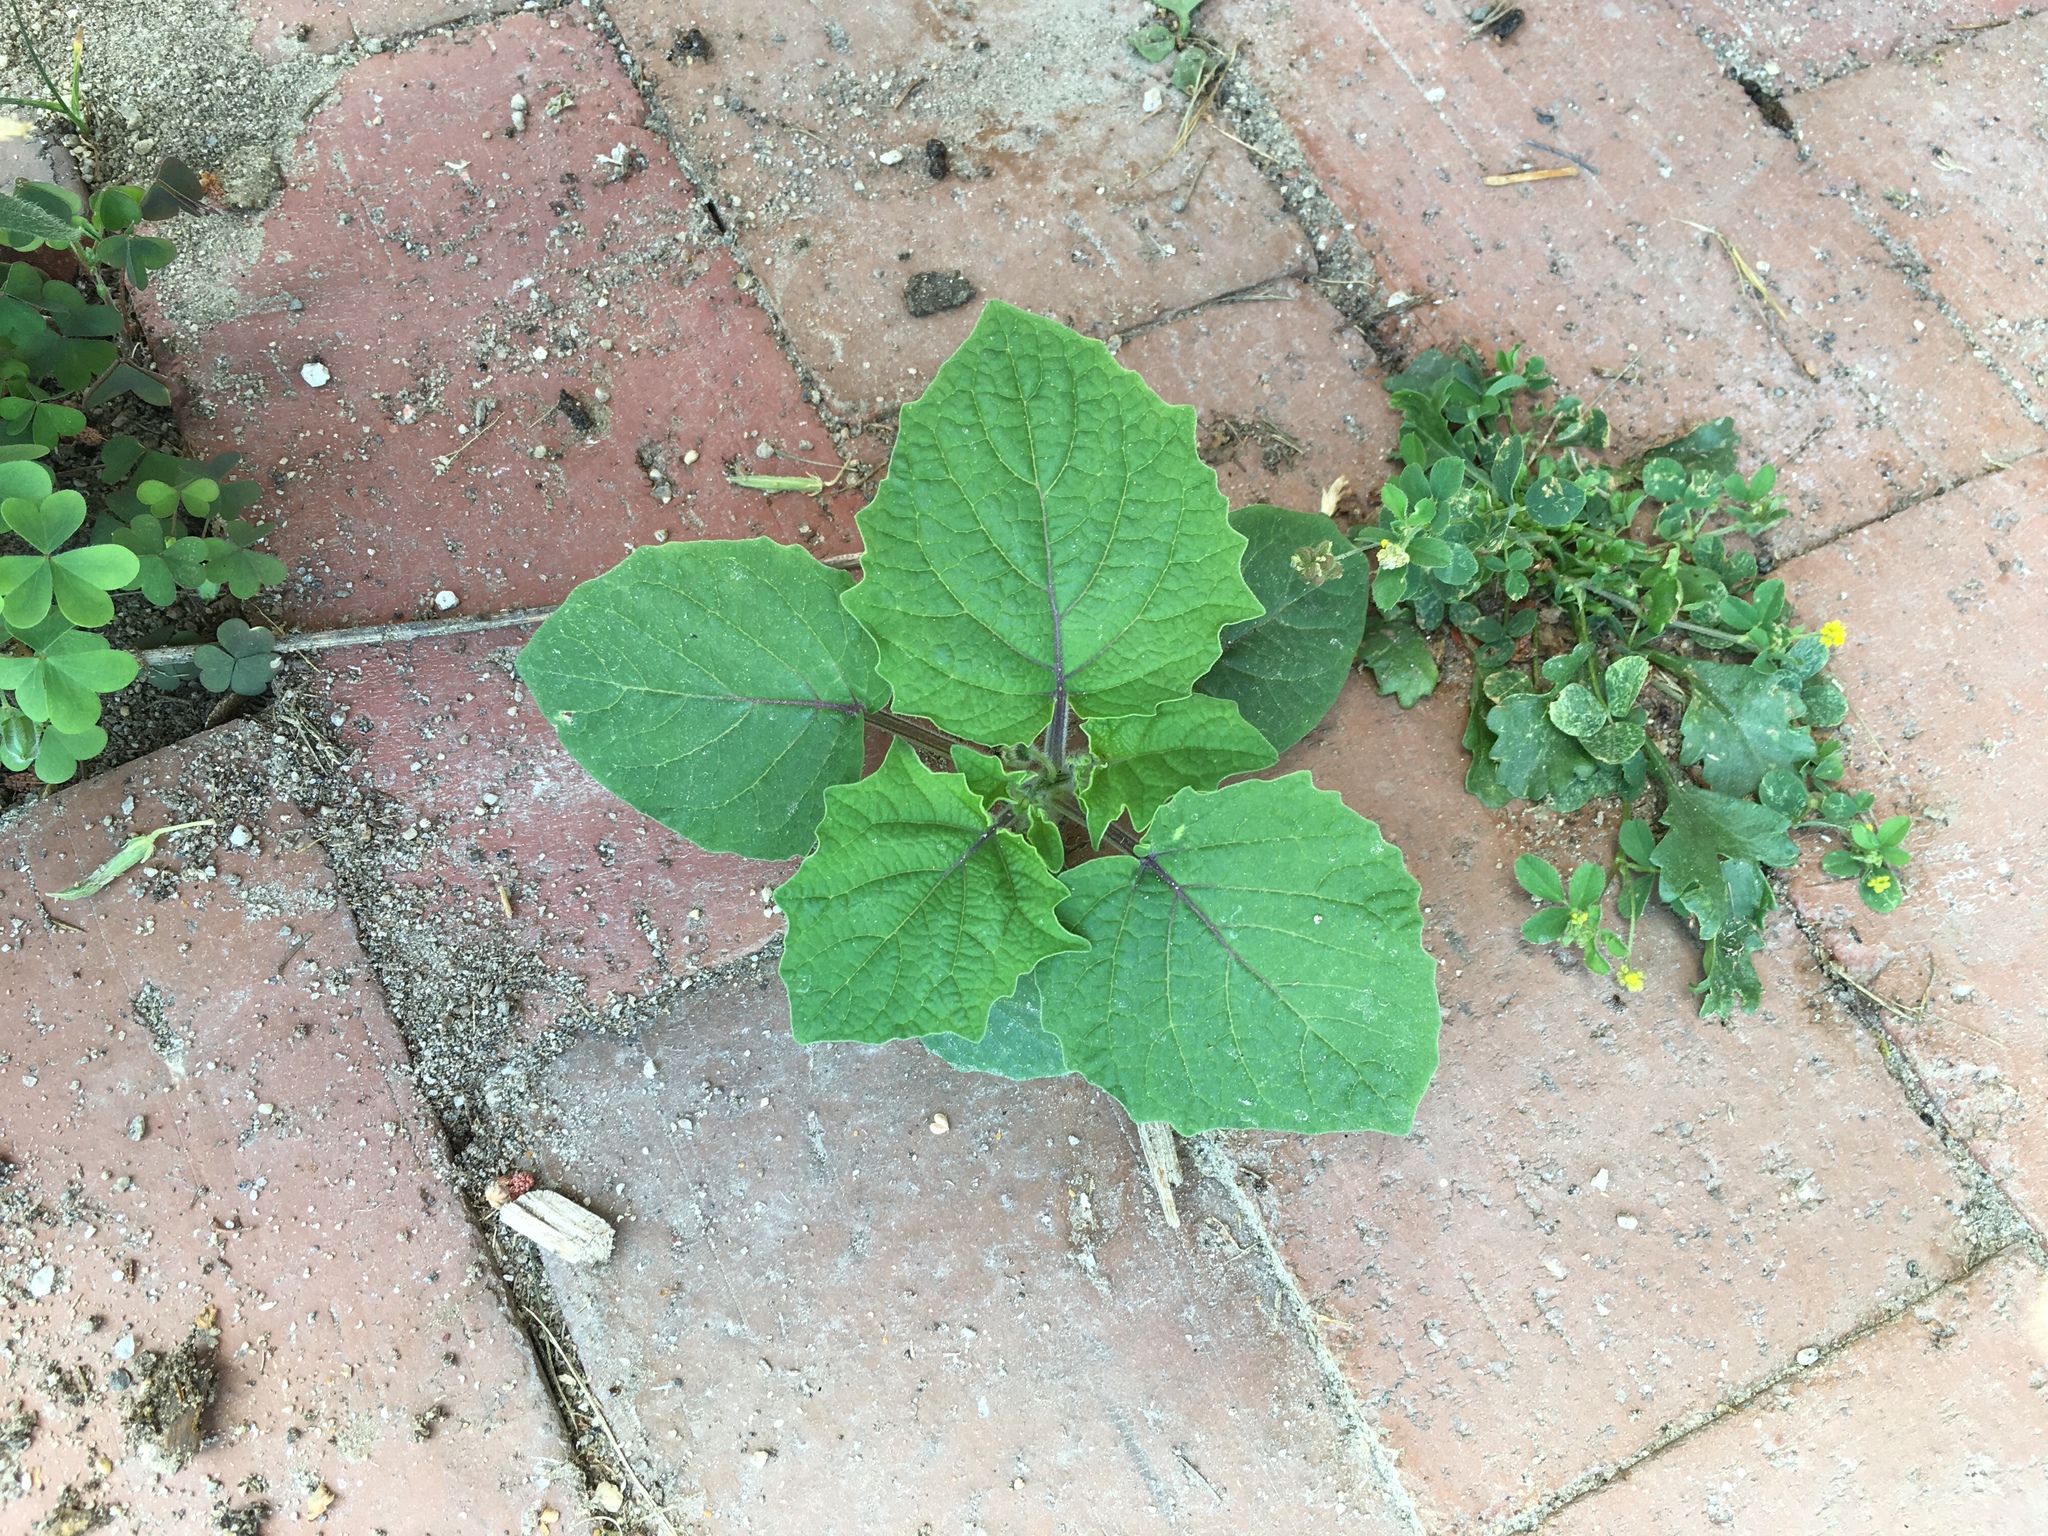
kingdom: Plantae
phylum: Tracheophyta
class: Magnoliopsida
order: Solanales
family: Solanaceae
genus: Physalis
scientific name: Physalis grisea
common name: Dwarf cape-gooseberry
